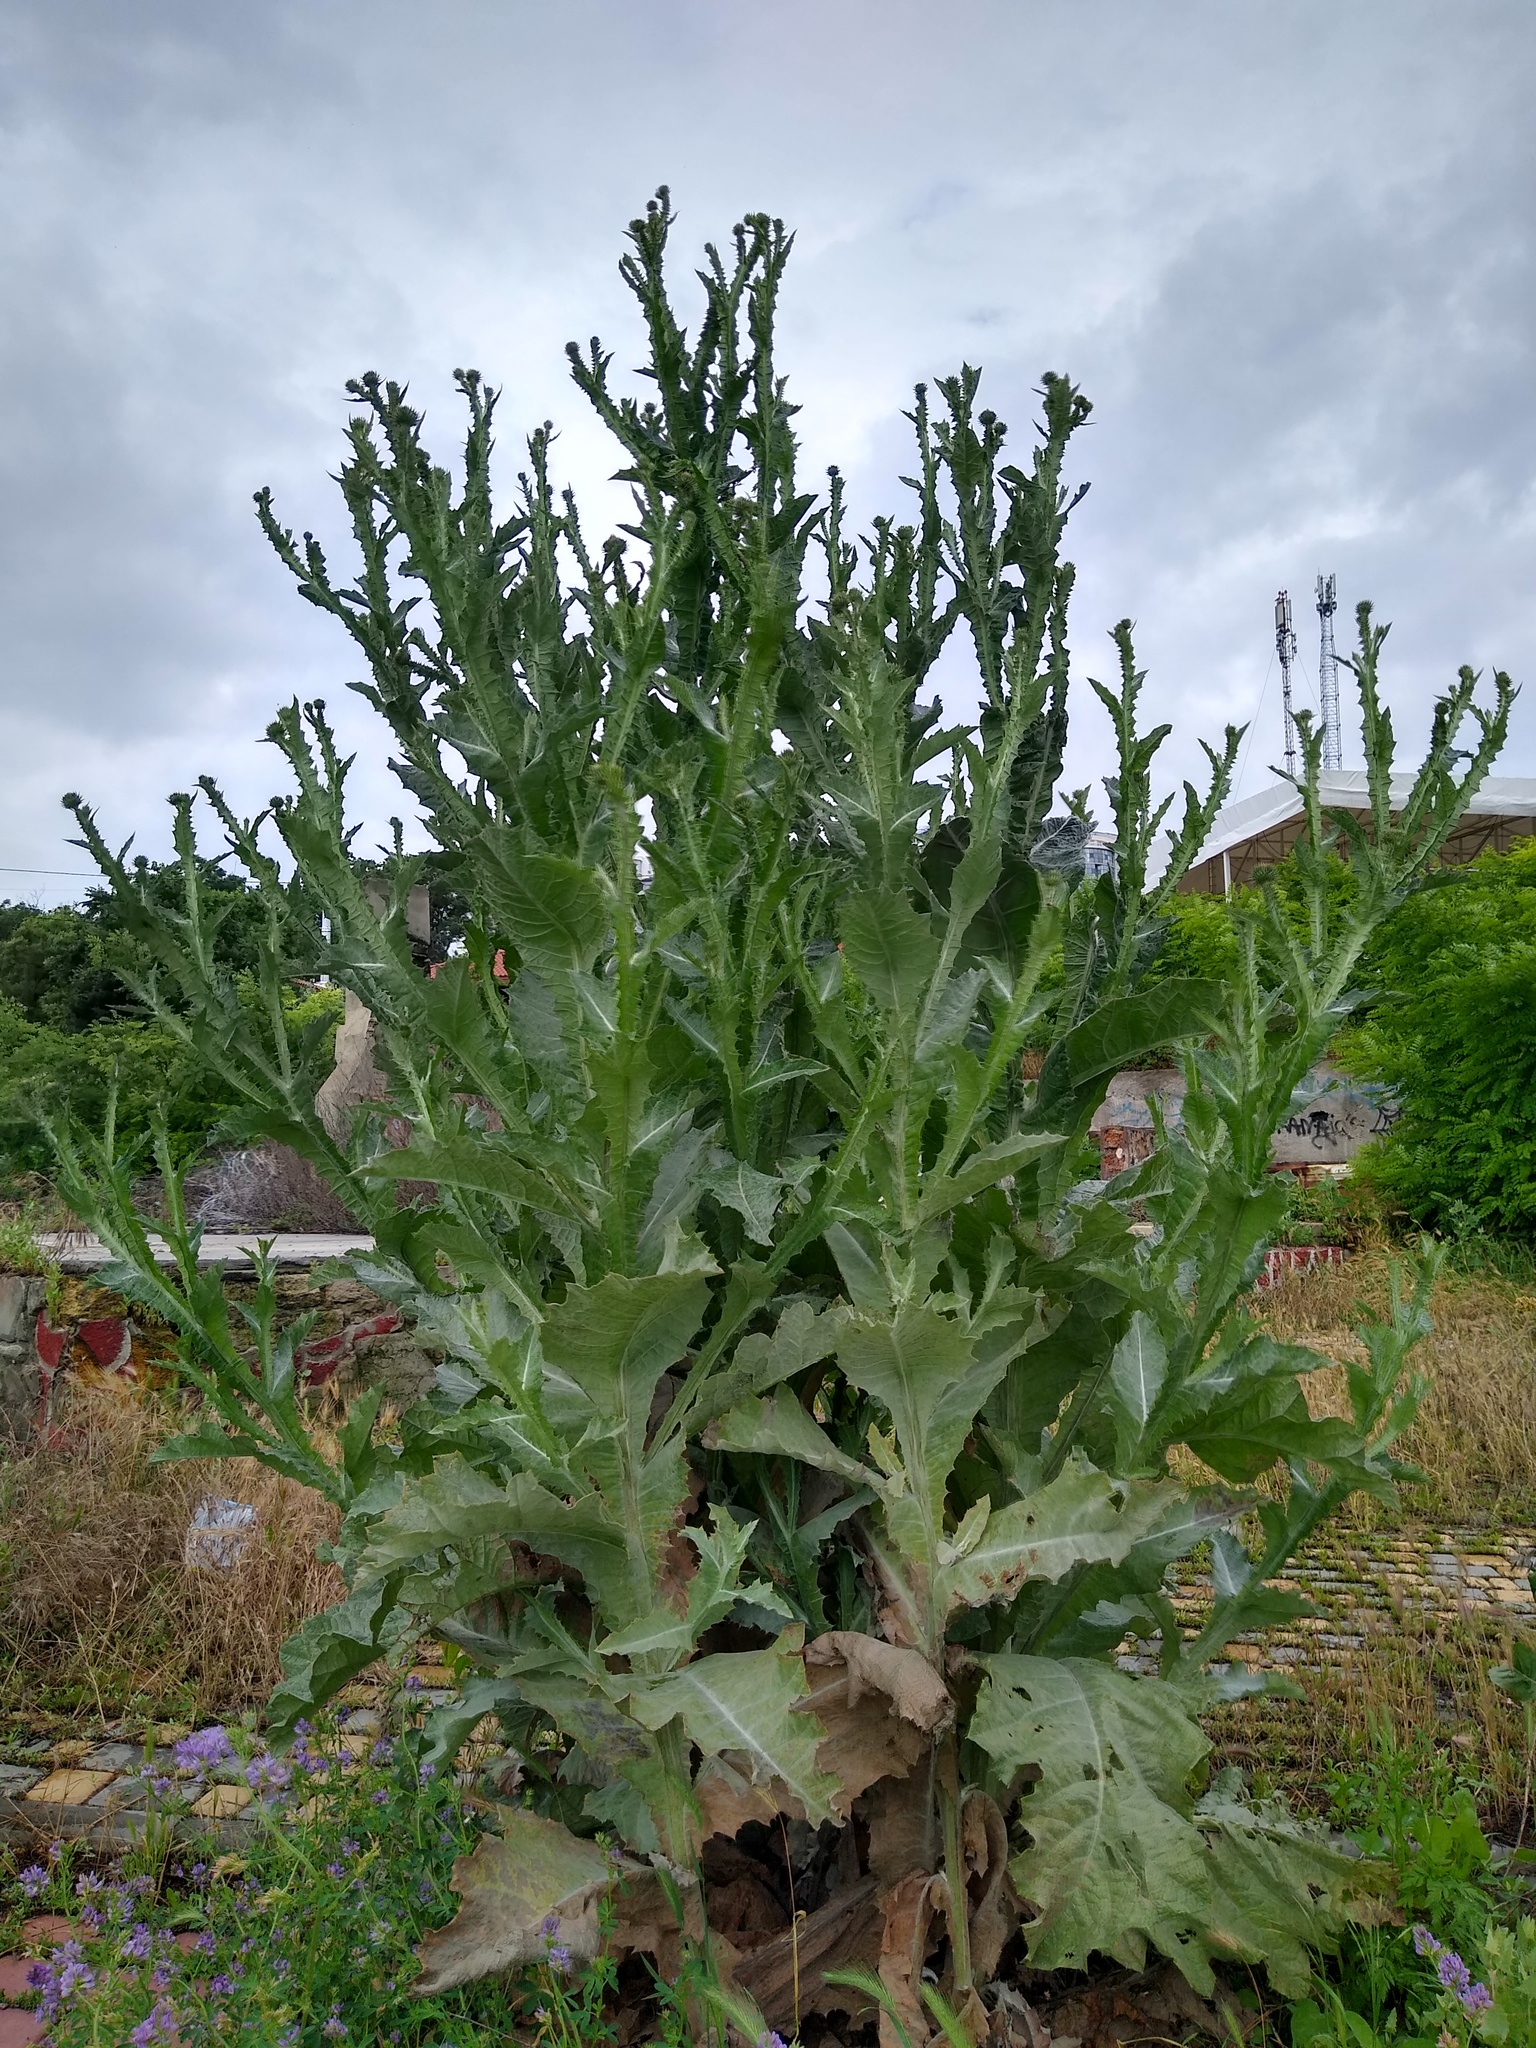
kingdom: Plantae
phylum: Tracheophyta
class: Magnoliopsida
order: Asterales
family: Asteraceae
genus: Onopordum
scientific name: Onopordum acanthium
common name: Scotch thistle
